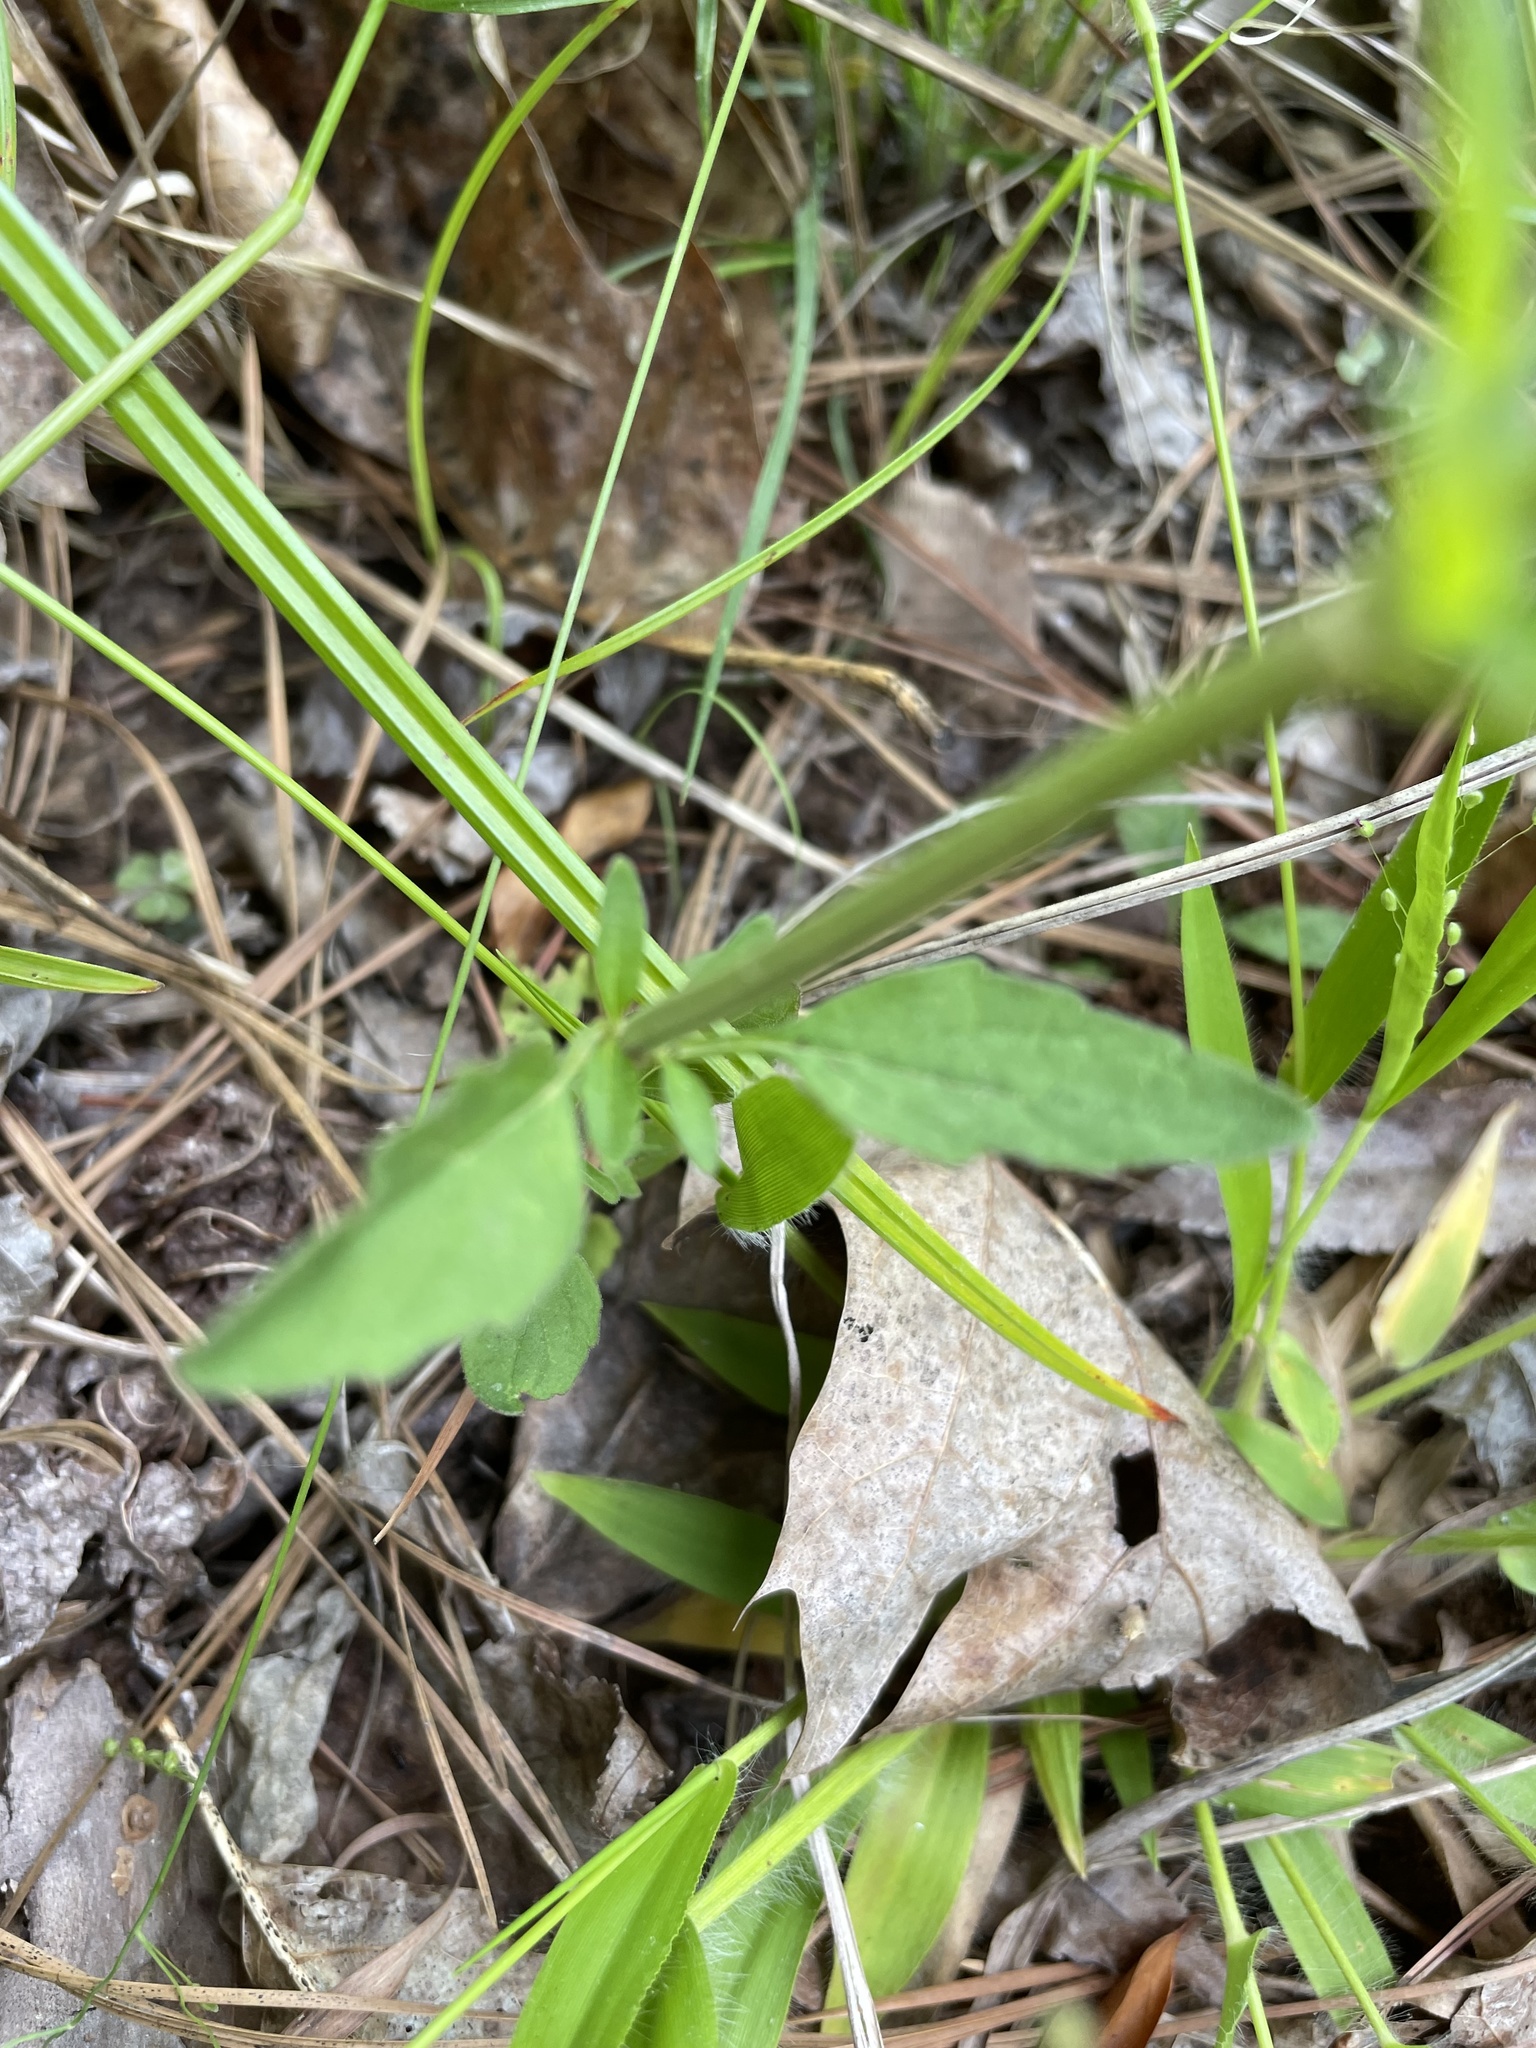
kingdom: Plantae
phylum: Tracheophyta
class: Magnoliopsida
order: Lamiales
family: Lamiaceae
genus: Scutellaria
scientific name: Scutellaria integrifolia
